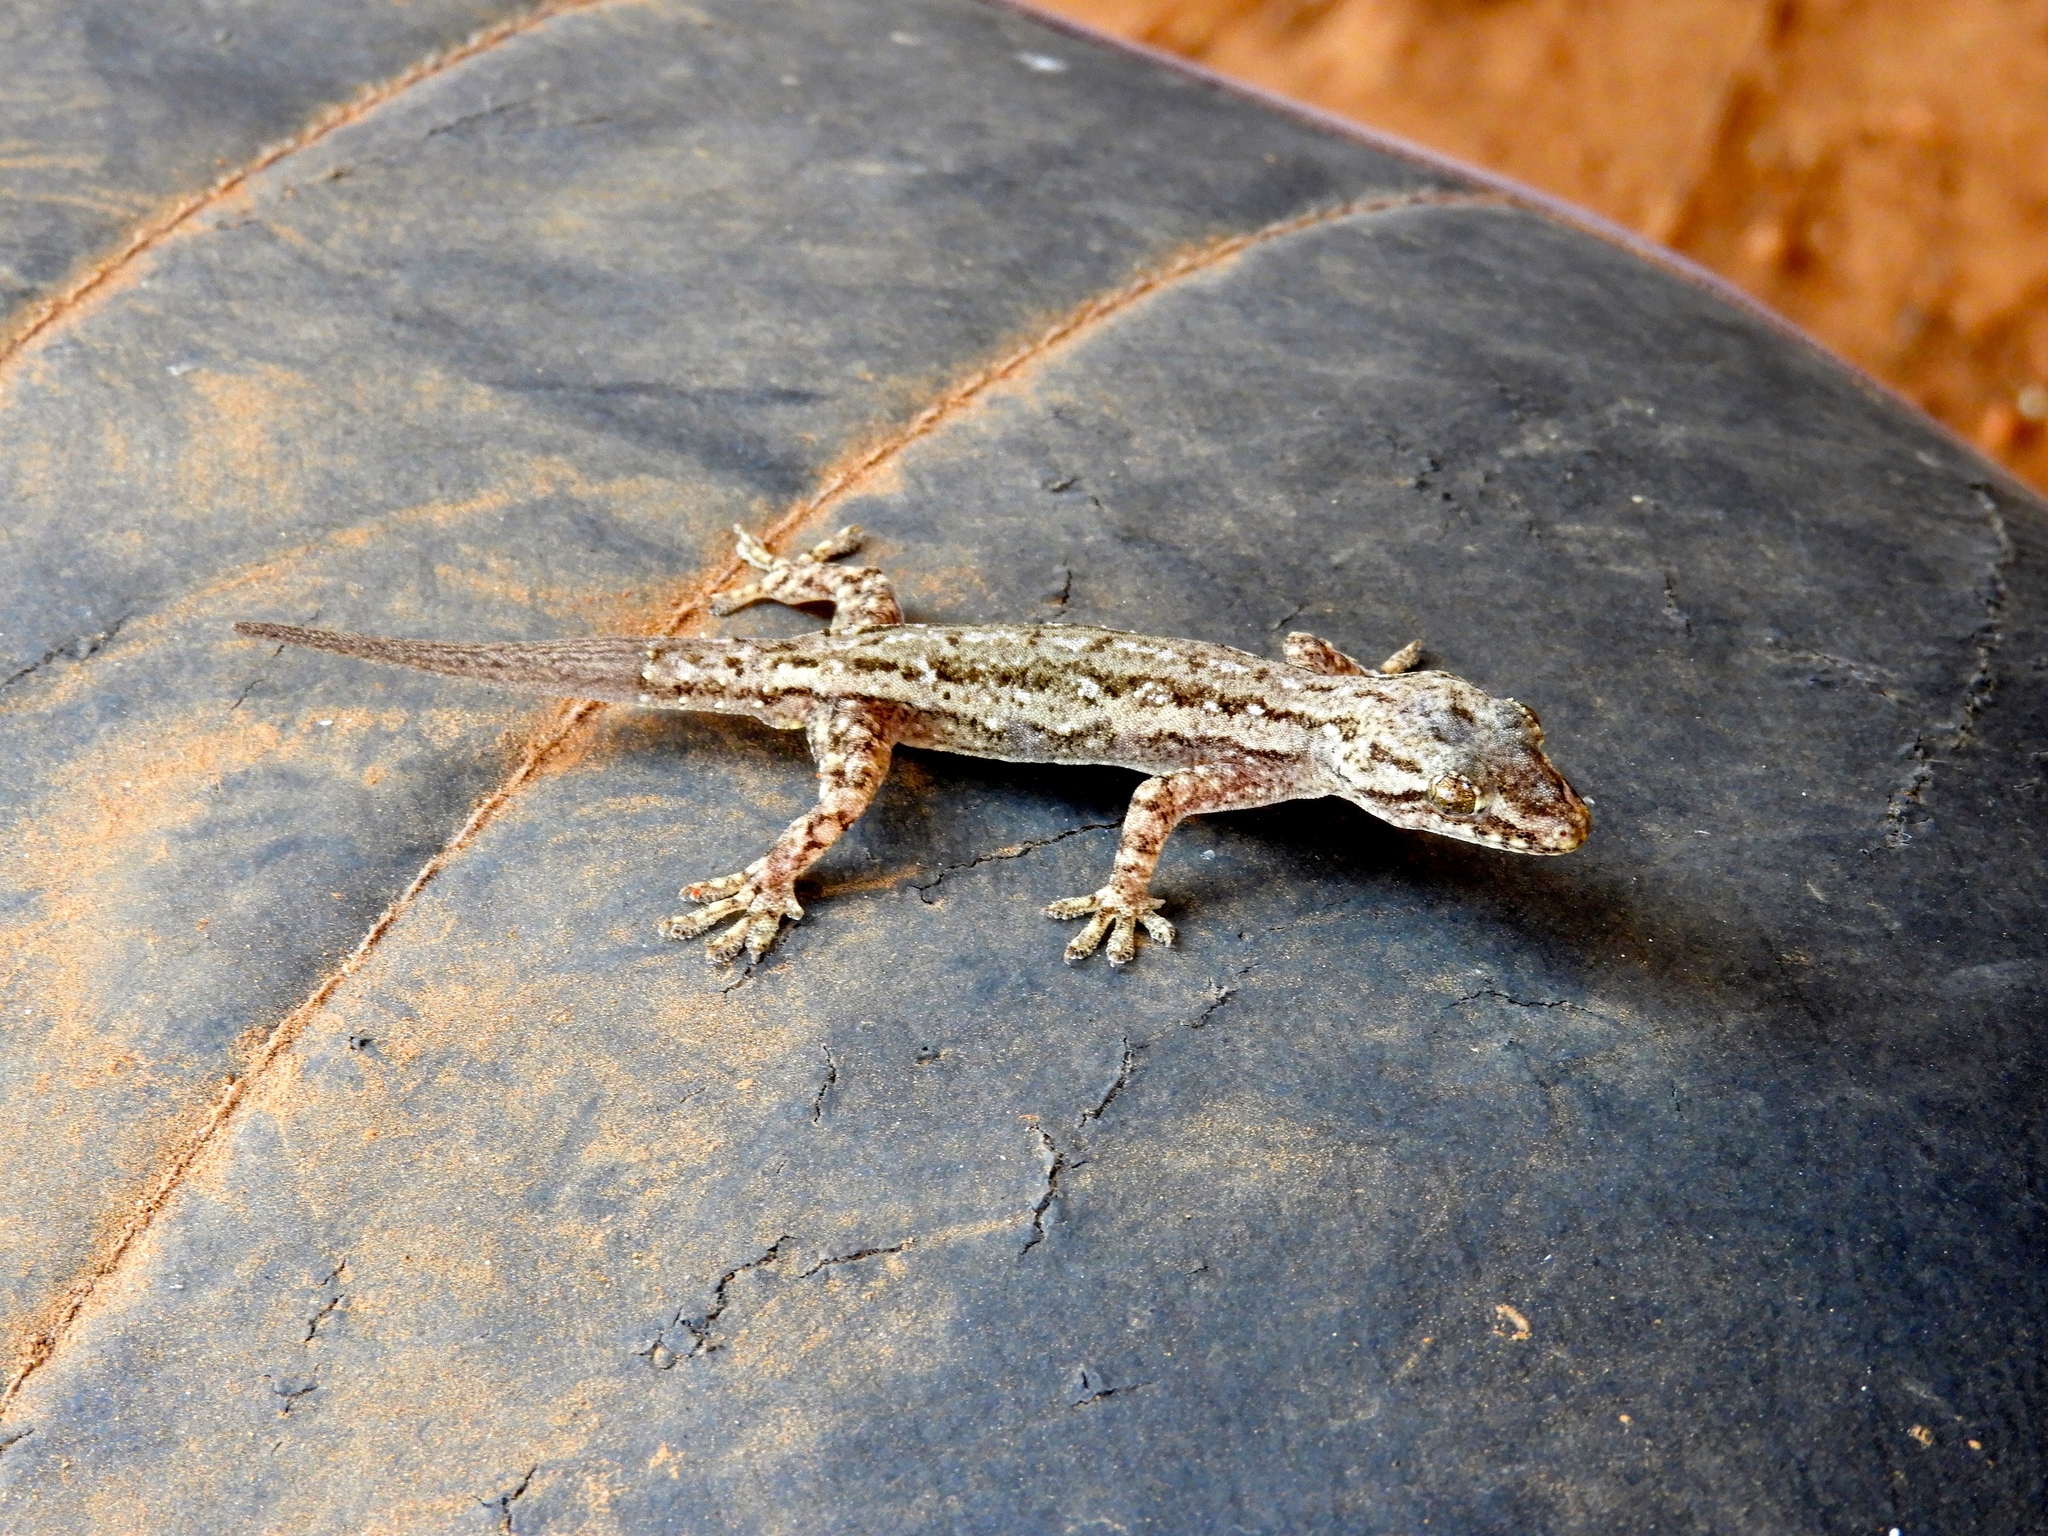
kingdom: Animalia
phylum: Chordata
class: Squamata
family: Gekkonidae
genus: Hemidactylus
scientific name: Hemidactylus frenatus
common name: Common house gecko
